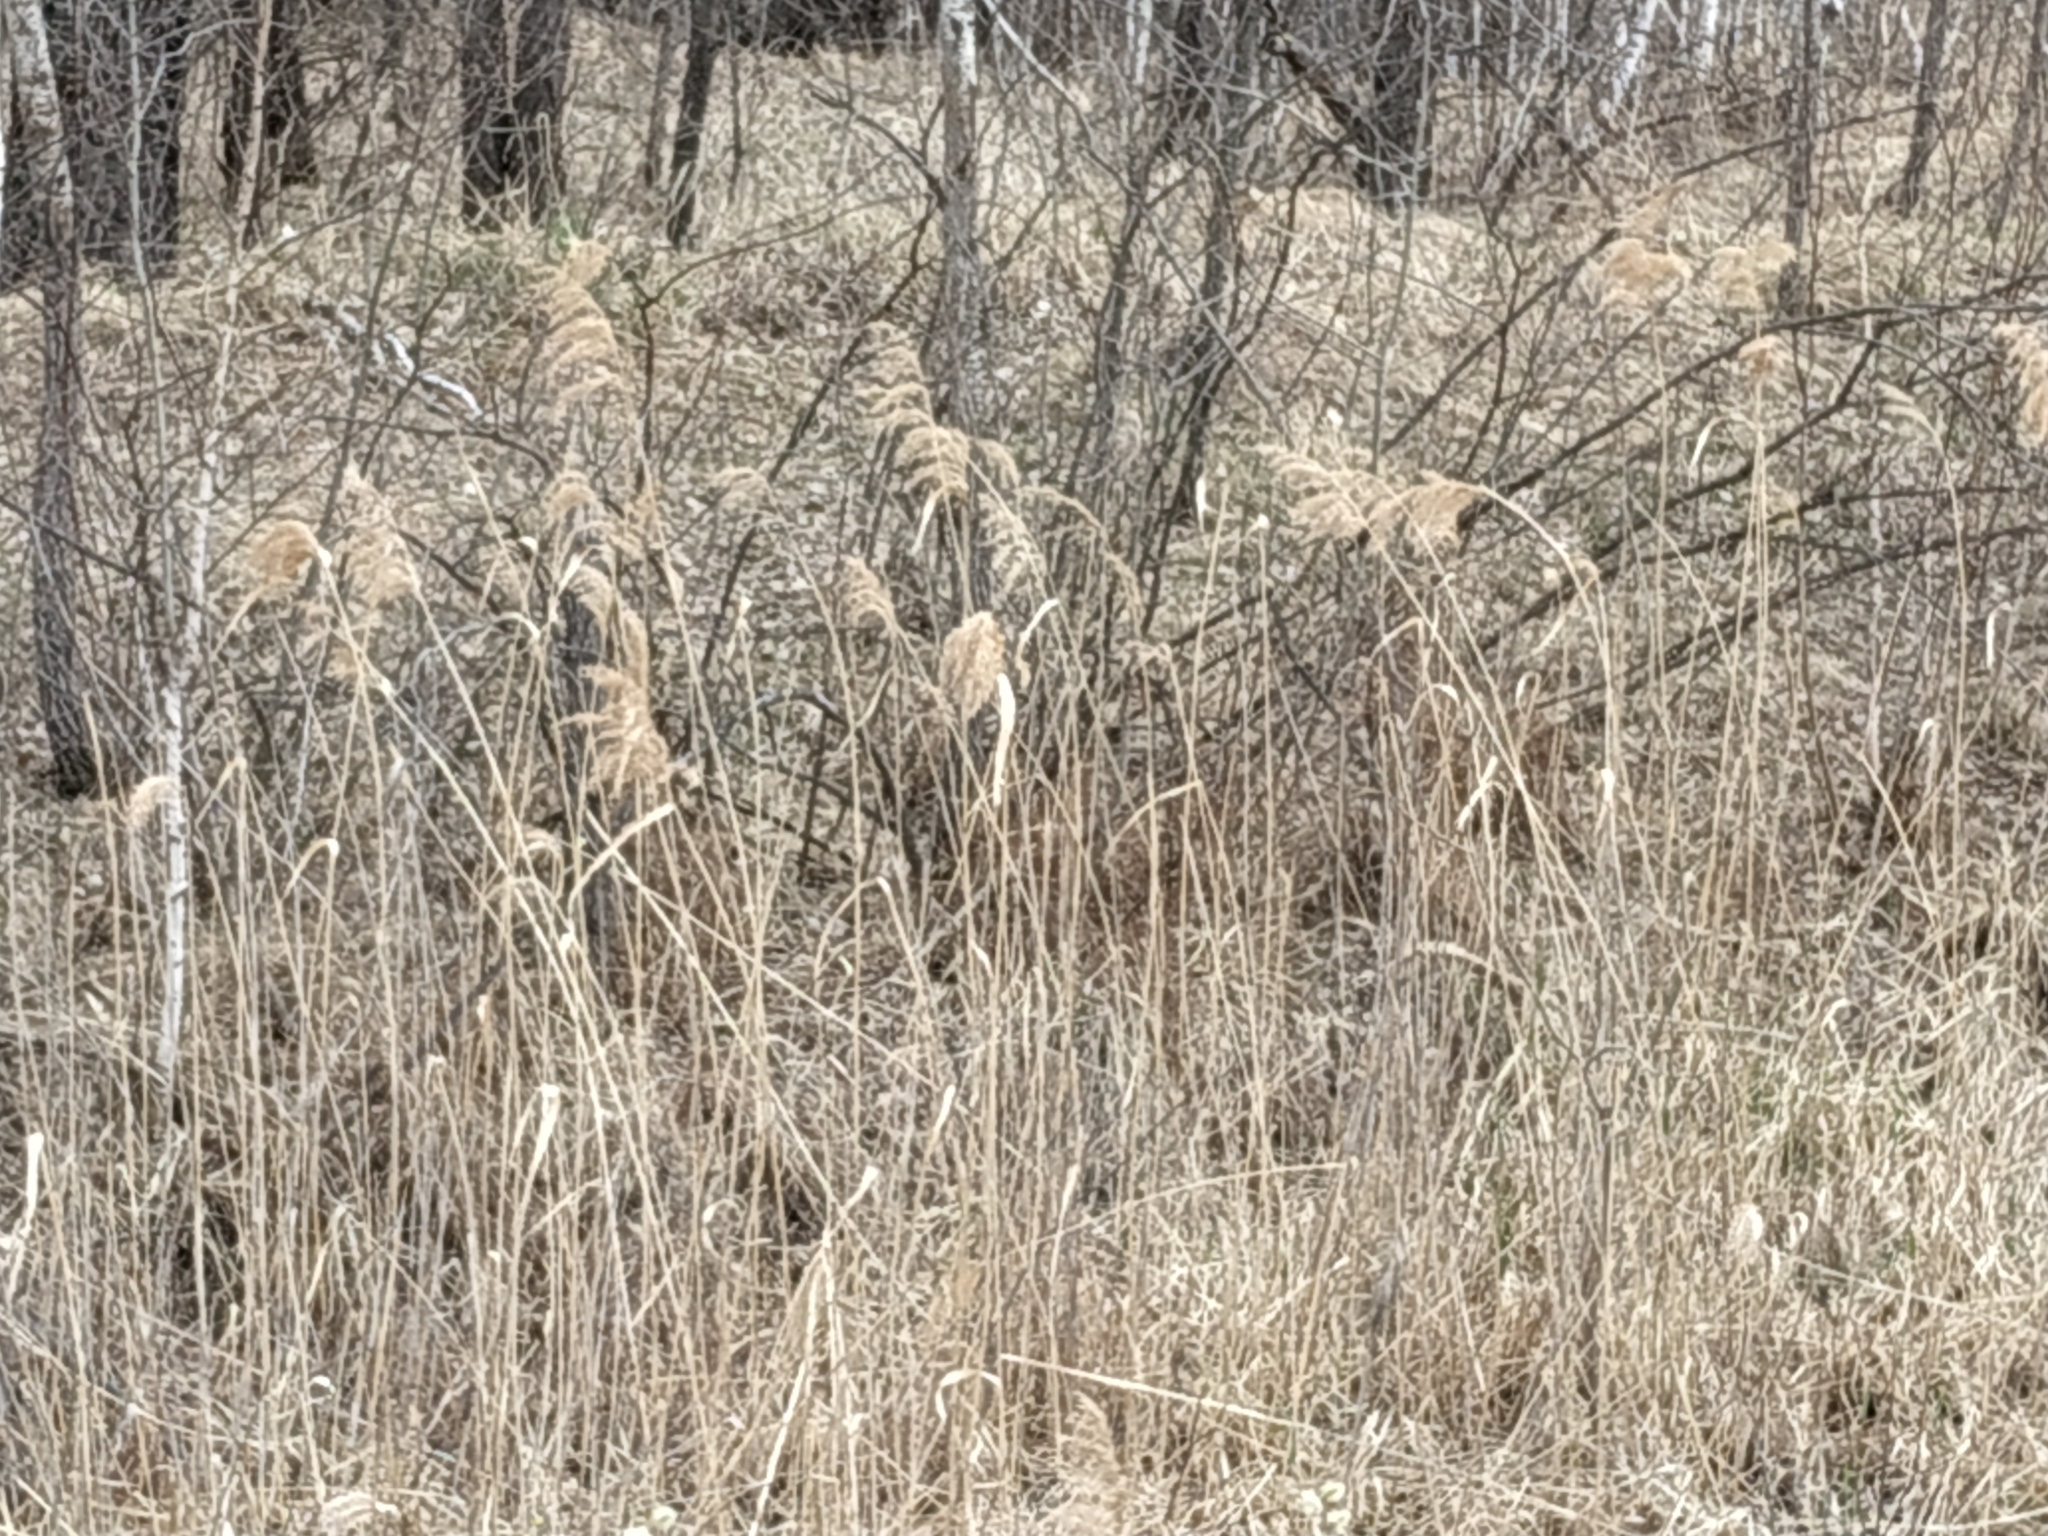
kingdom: Plantae
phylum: Tracheophyta
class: Liliopsida
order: Poales
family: Poaceae
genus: Phragmites
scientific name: Phragmites australis
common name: Common reed
